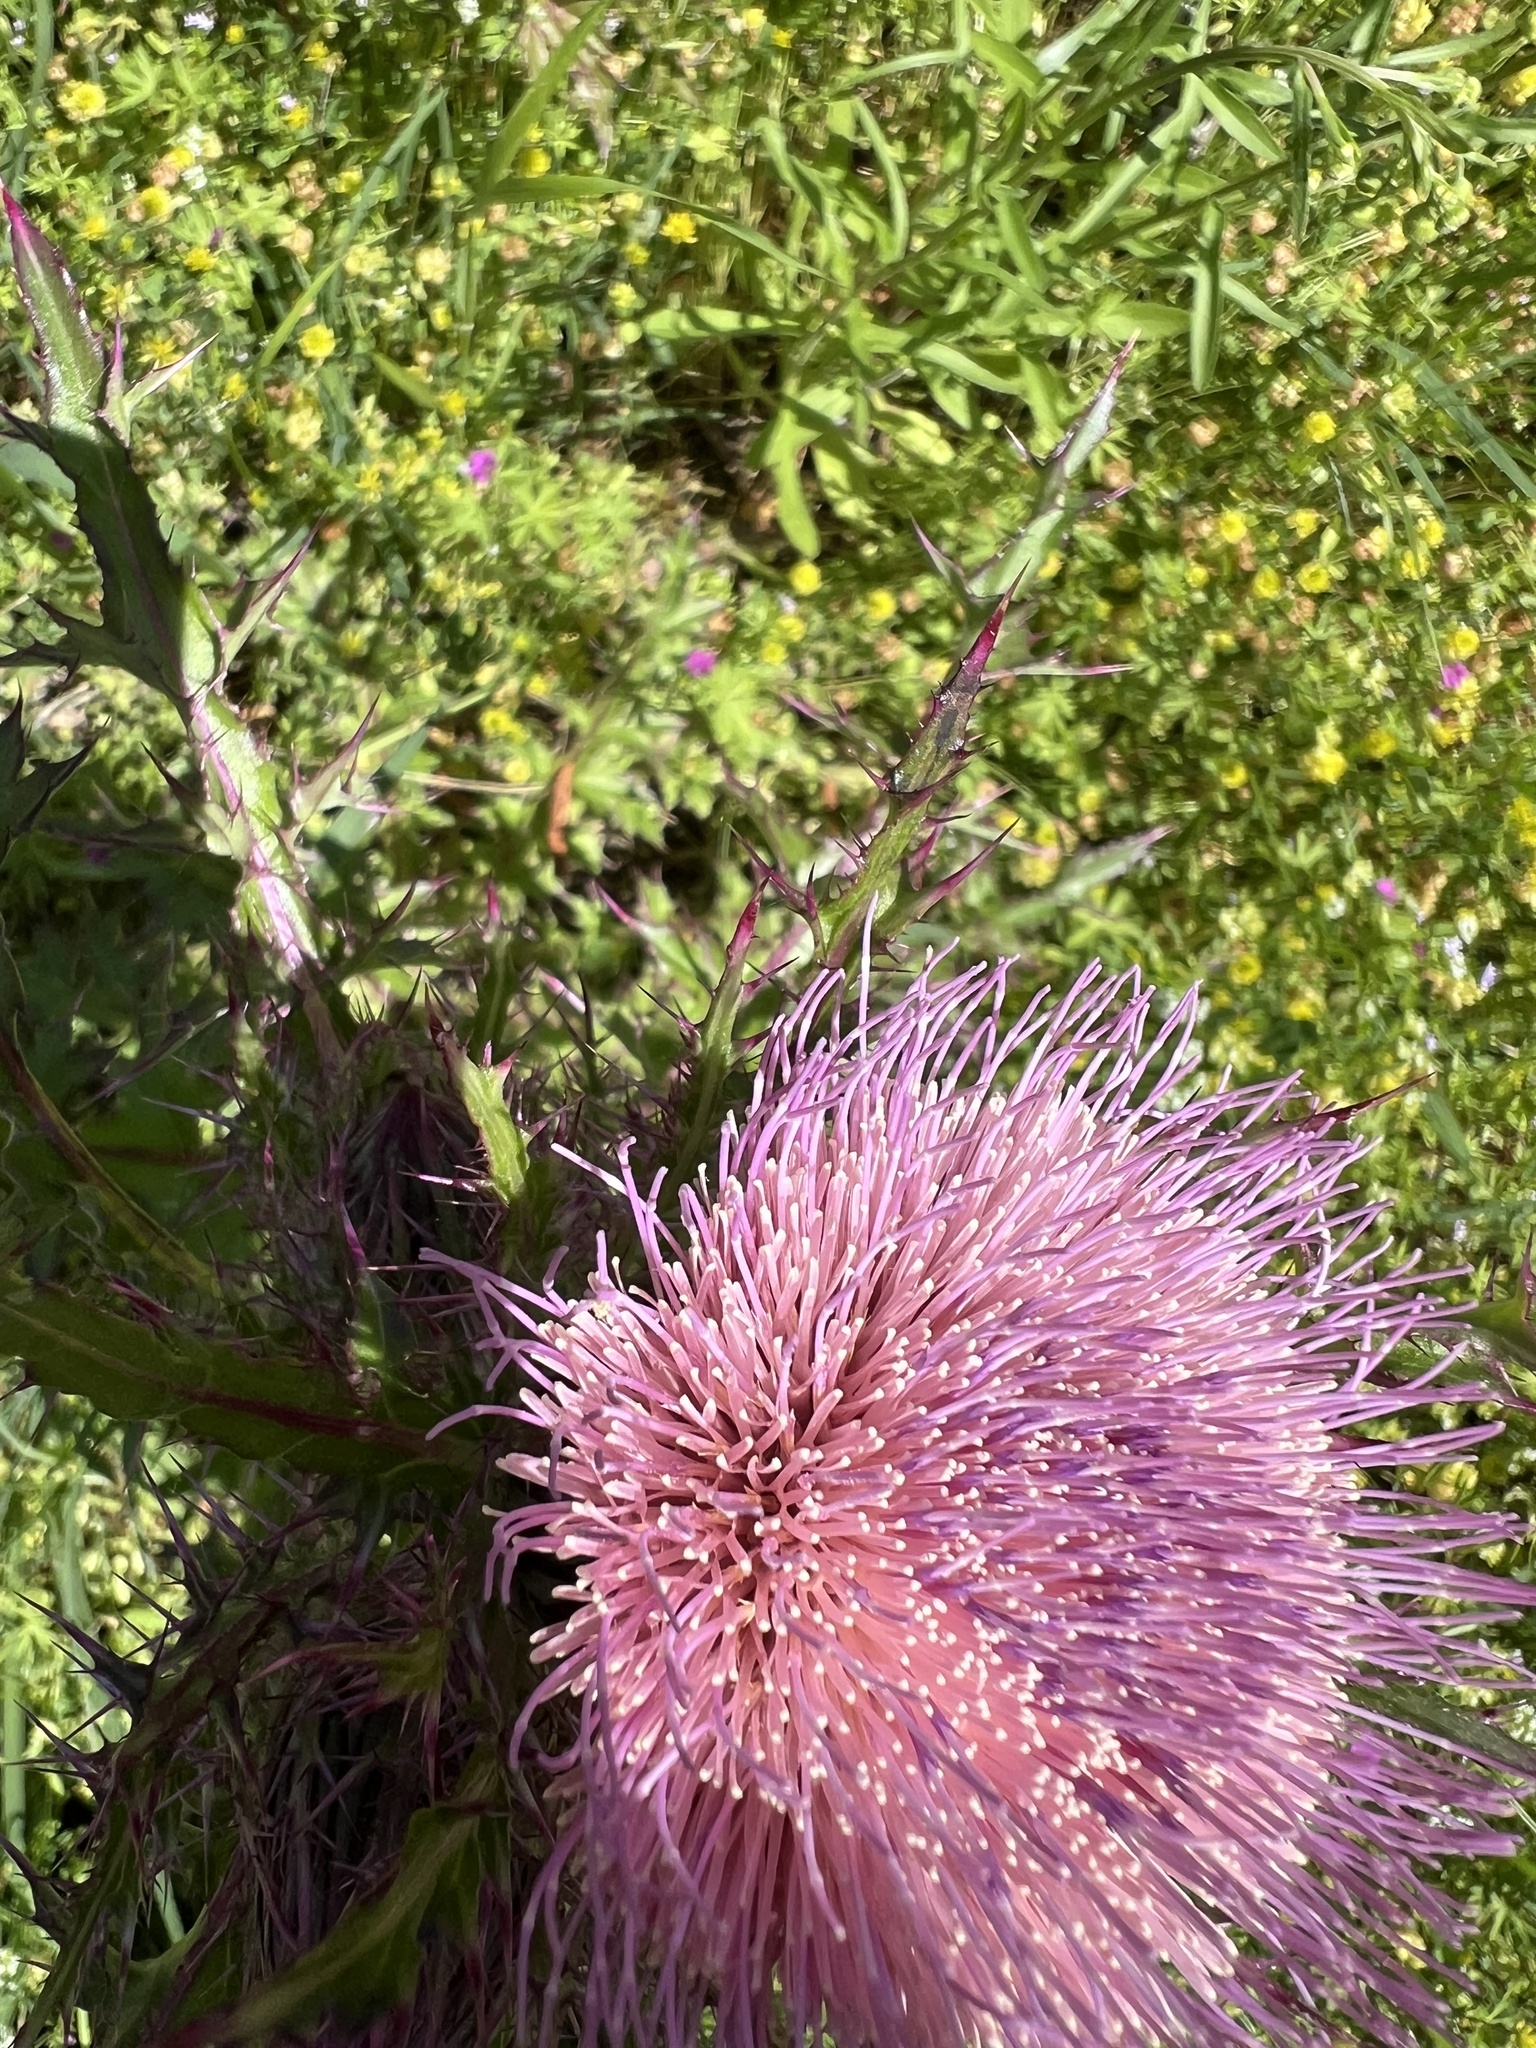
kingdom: Plantae
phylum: Tracheophyta
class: Magnoliopsida
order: Asterales
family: Asteraceae
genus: Cirsium
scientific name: Cirsium horridulum
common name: Bristly thistle
